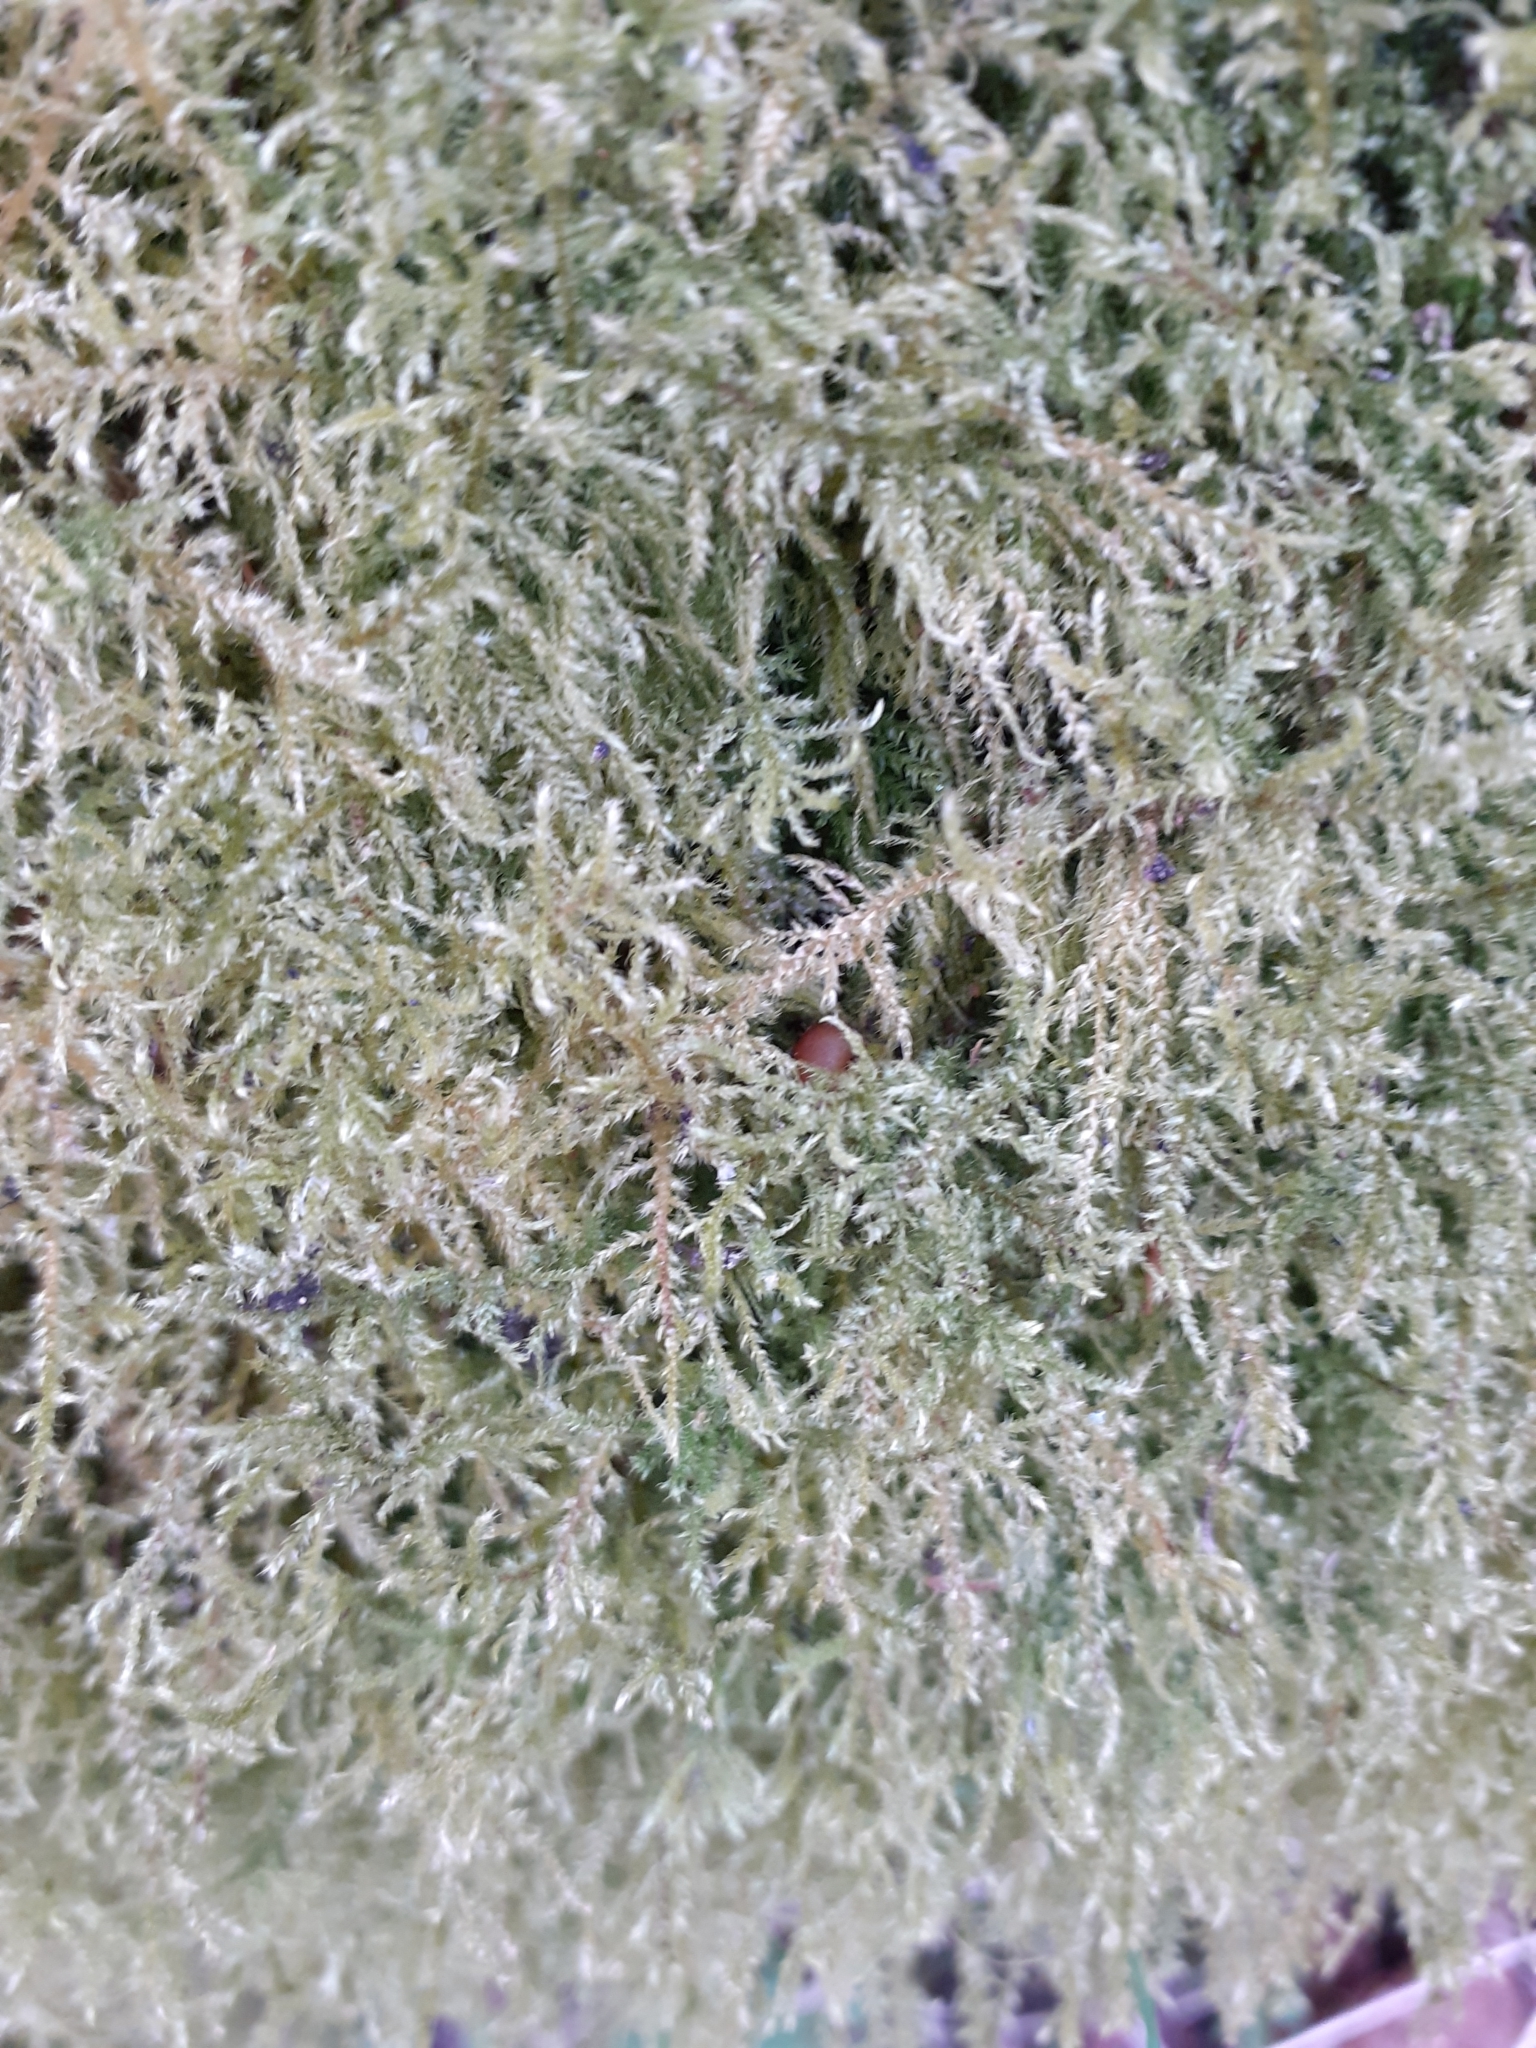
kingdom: Plantae
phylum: Bryophyta
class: Bryopsida
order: Hypnales
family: Brachytheciaceae
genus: Kindbergia
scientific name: Kindbergia praelonga
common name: Slender beaked moss
